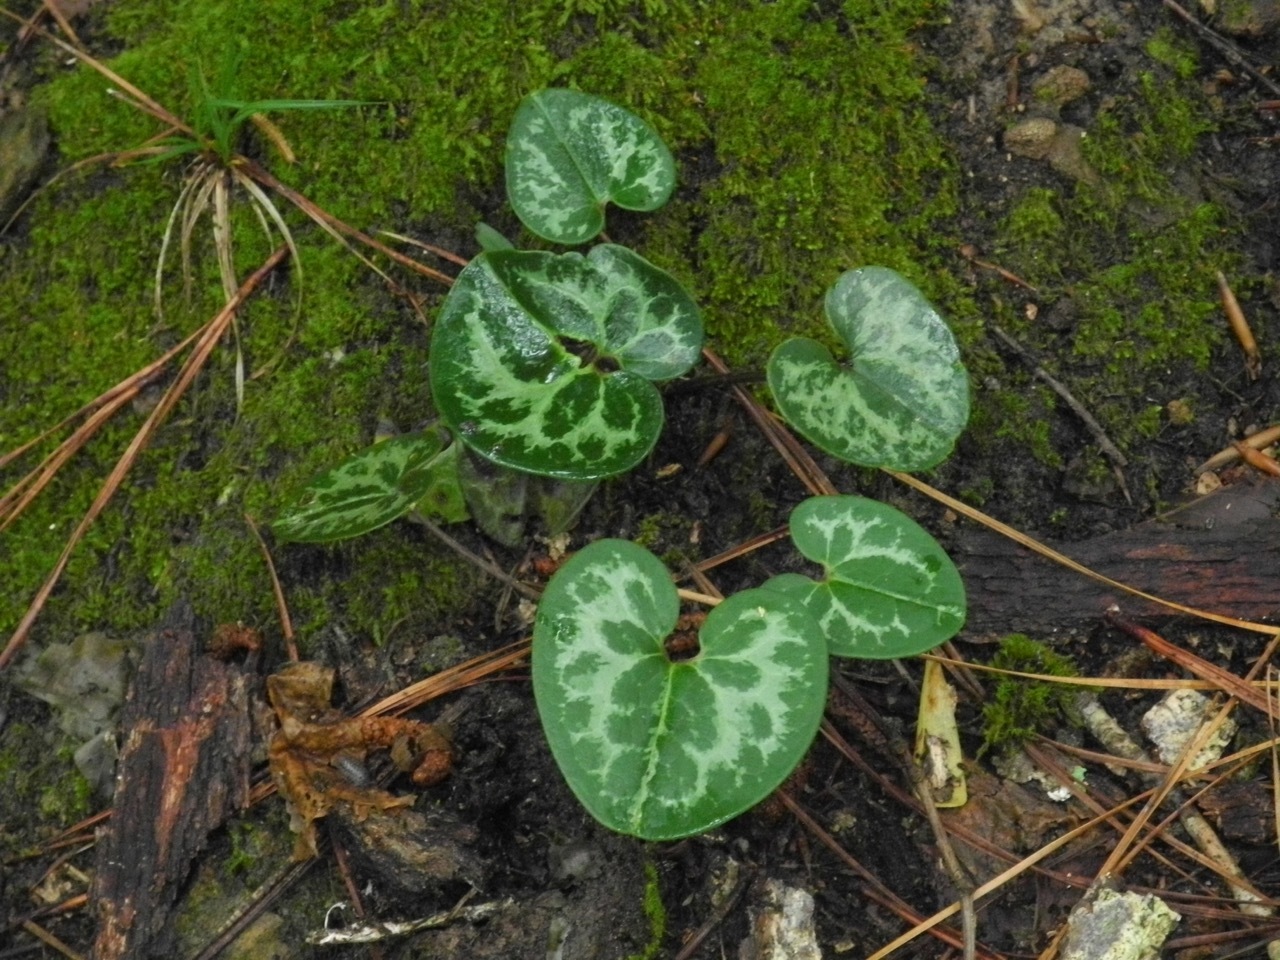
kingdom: Plantae
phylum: Tracheophyta
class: Magnoliopsida
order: Piperales
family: Aristolochiaceae
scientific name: Aristolochiaceae
